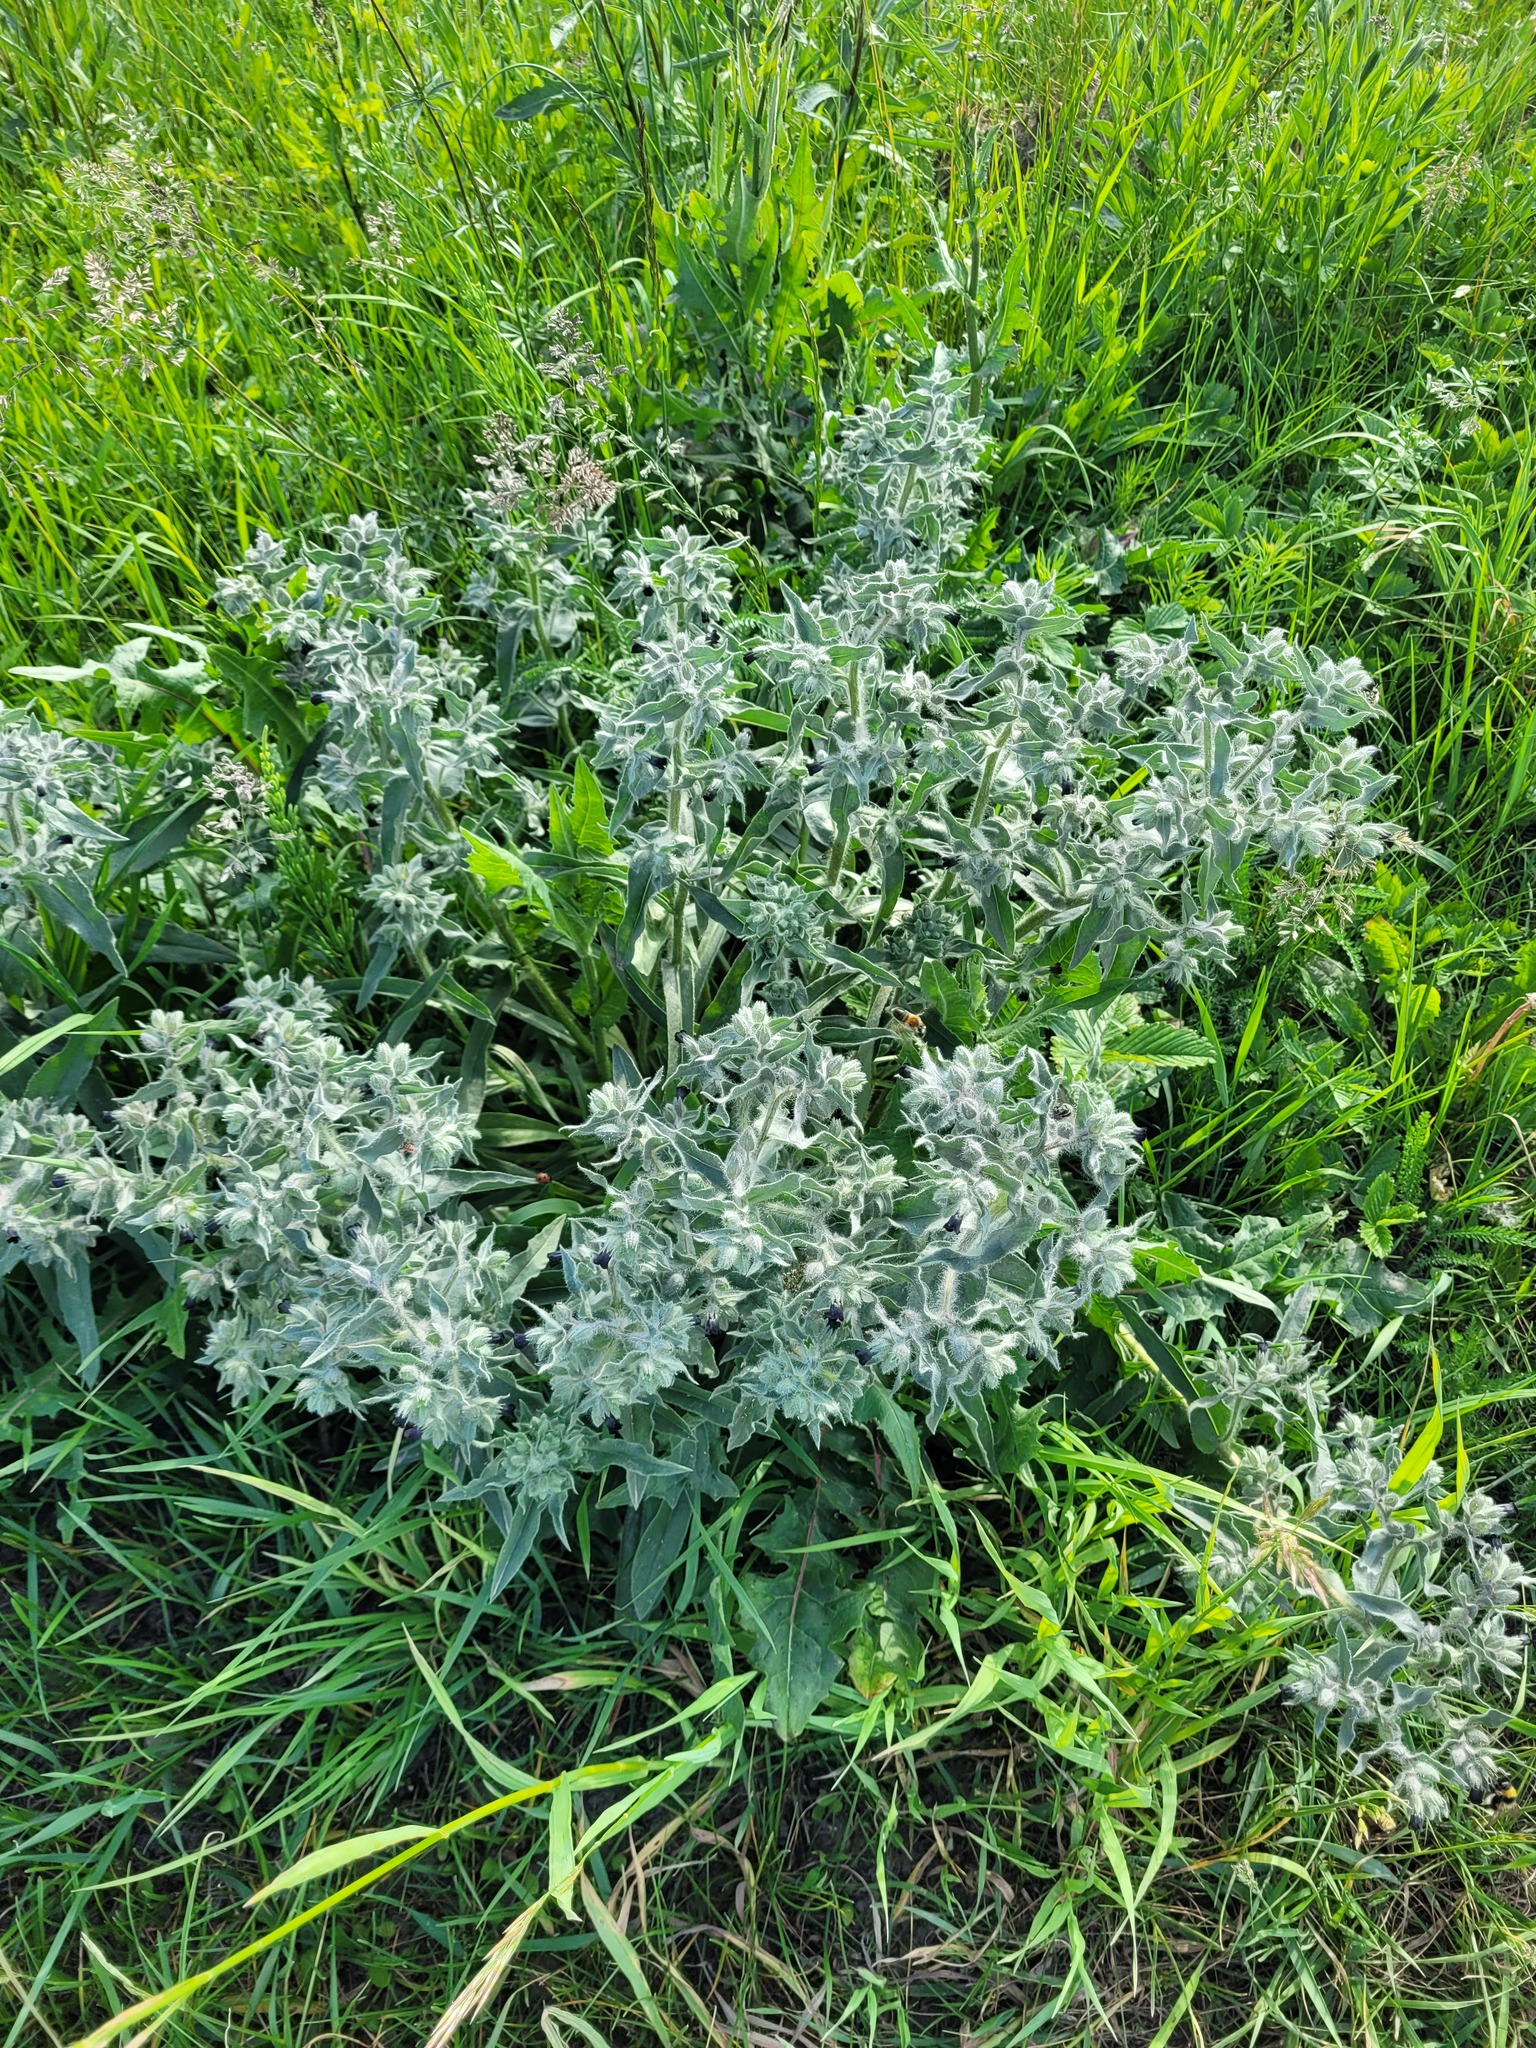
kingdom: Plantae
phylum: Tracheophyta
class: Magnoliopsida
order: Boraginales
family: Boraginaceae
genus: Nonea
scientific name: Nonea pulla
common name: Brown nonea
